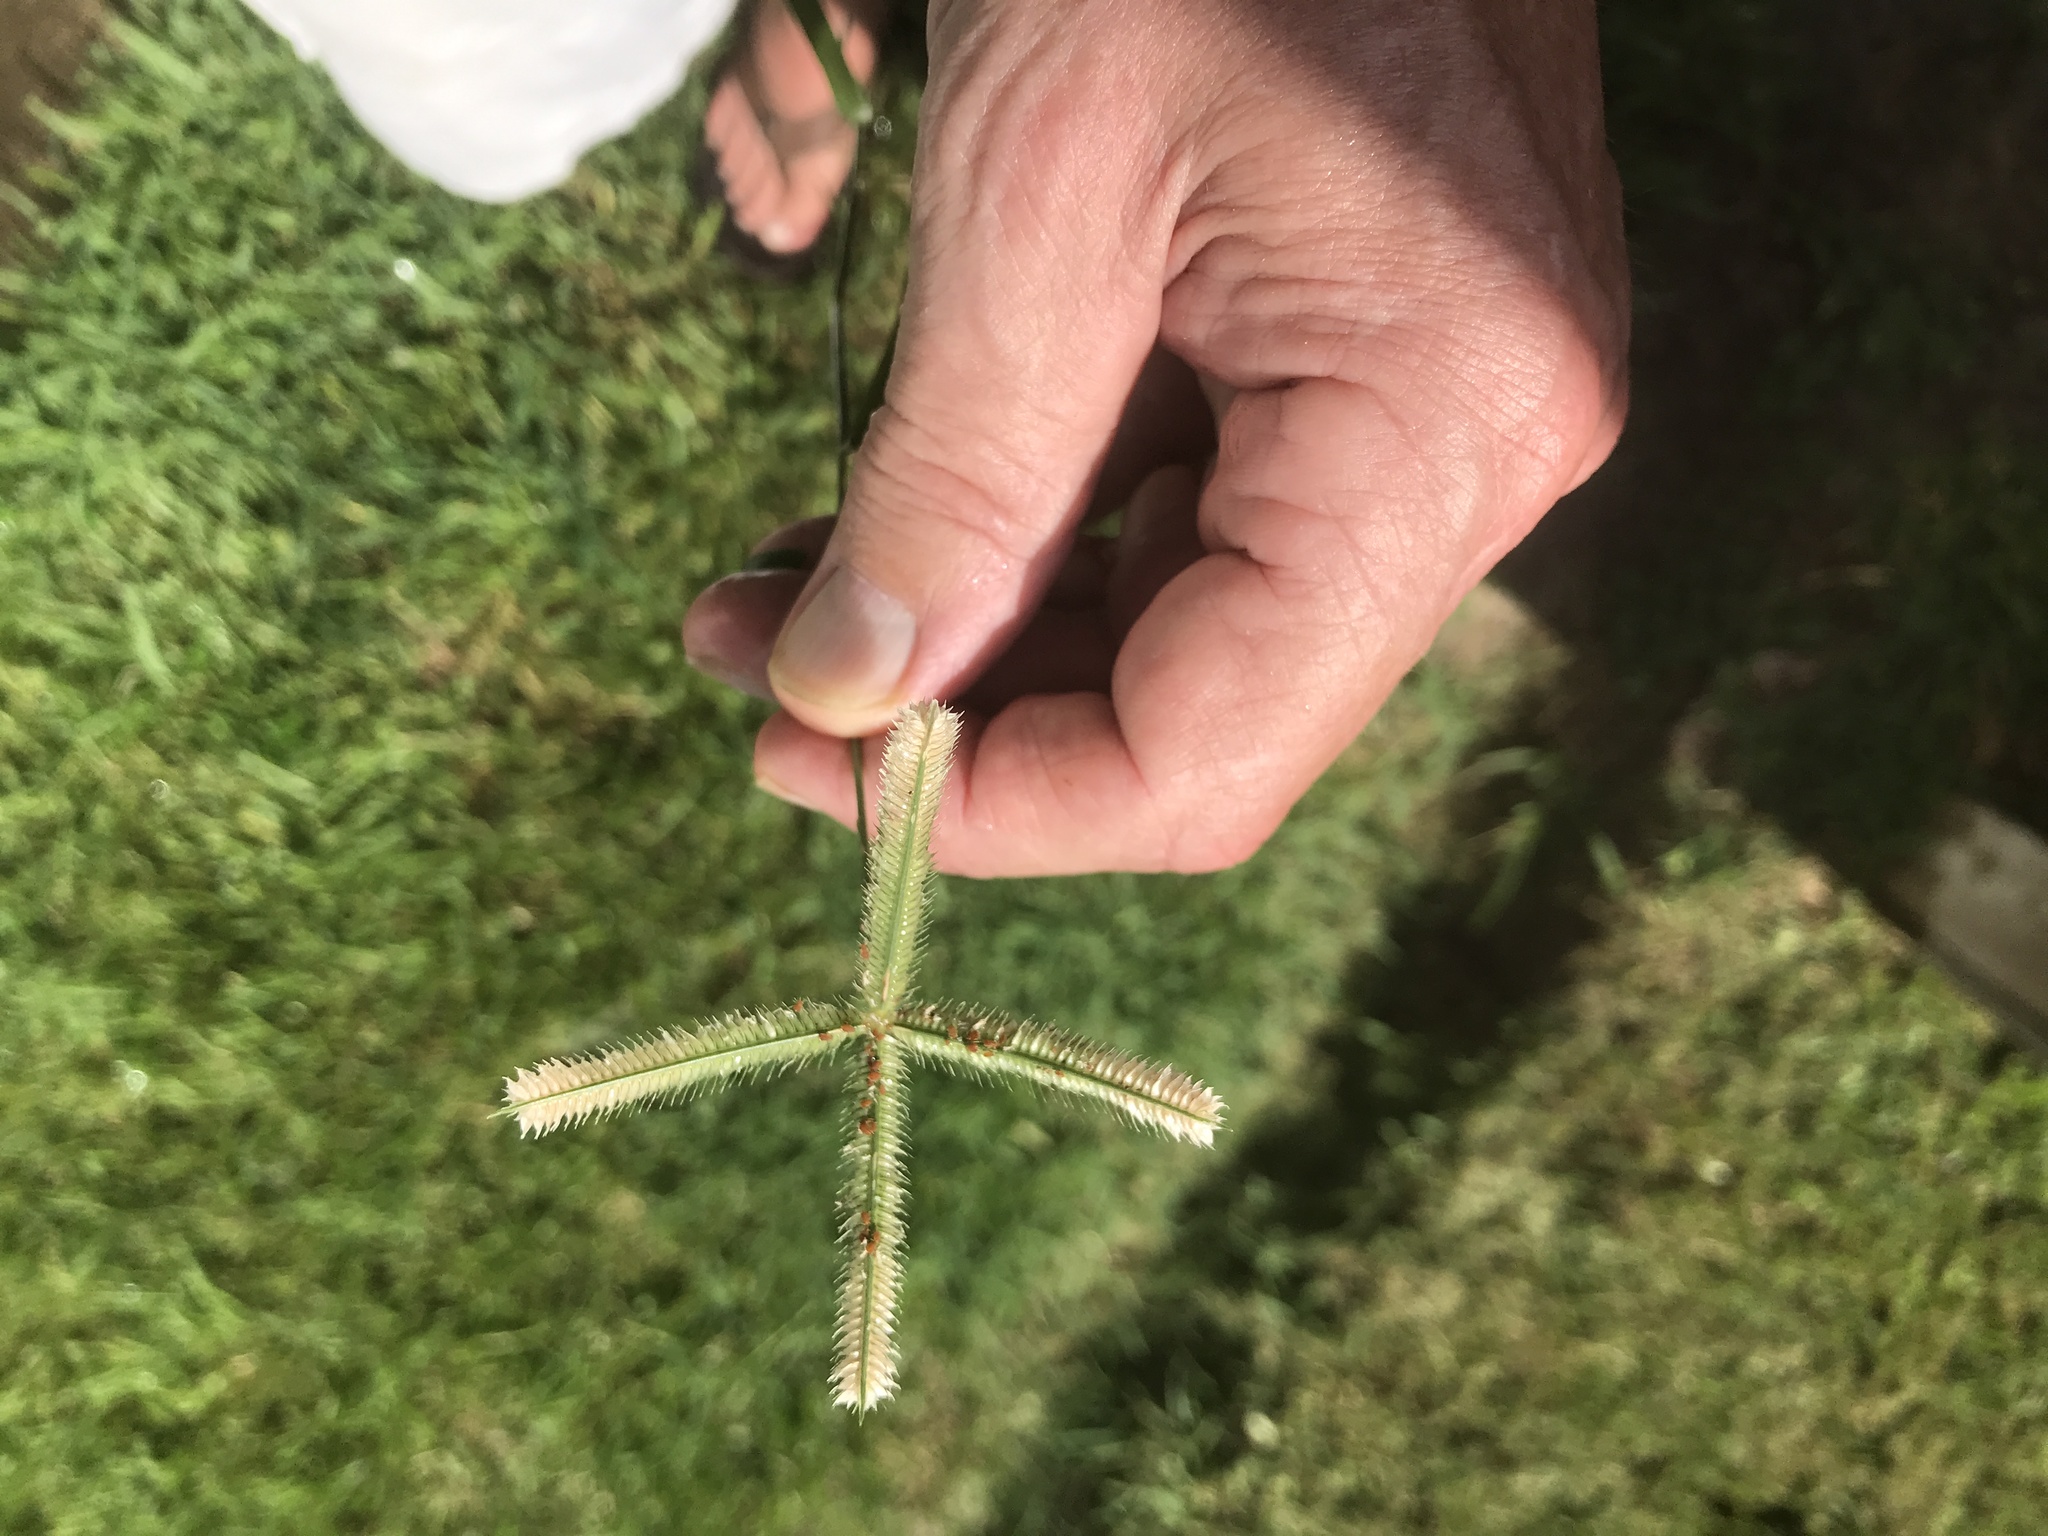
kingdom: Plantae
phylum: Tracheophyta
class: Liliopsida
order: Poales
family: Poaceae
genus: Dactyloctenium
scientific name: Dactyloctenium aegyptium
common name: Egyptian grass
